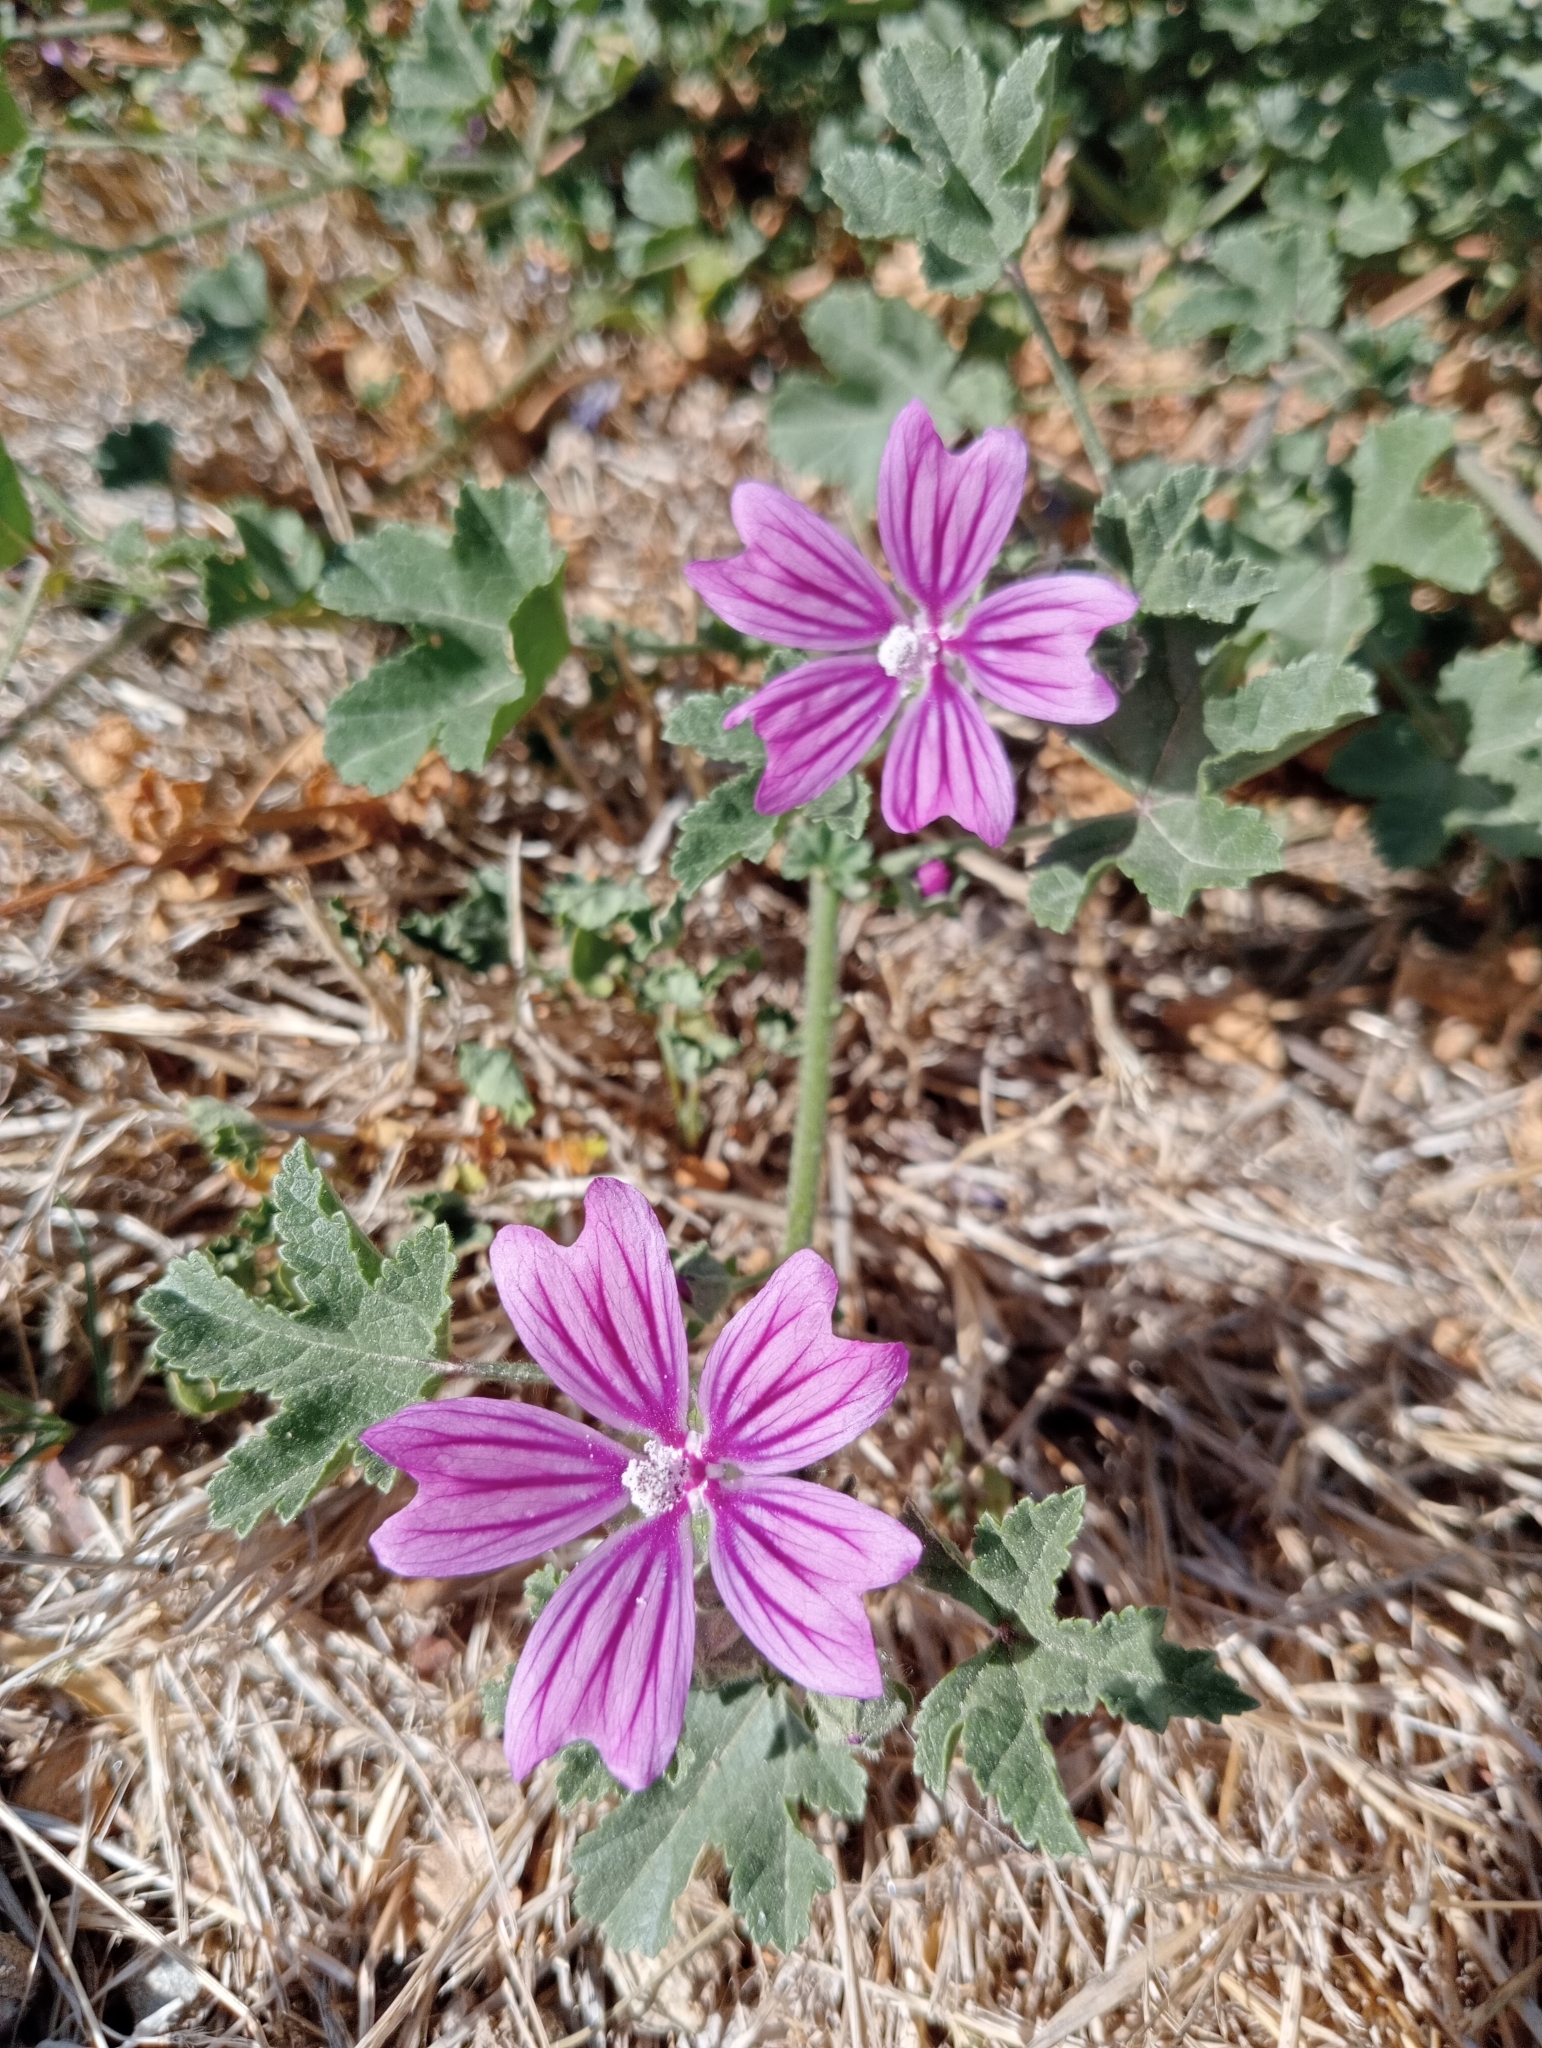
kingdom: Plantae
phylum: Tracheophyta
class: Magnoliopsida
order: Malvales
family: Malvaceae
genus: Malva
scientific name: Malva sylvestris
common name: Common mallow
